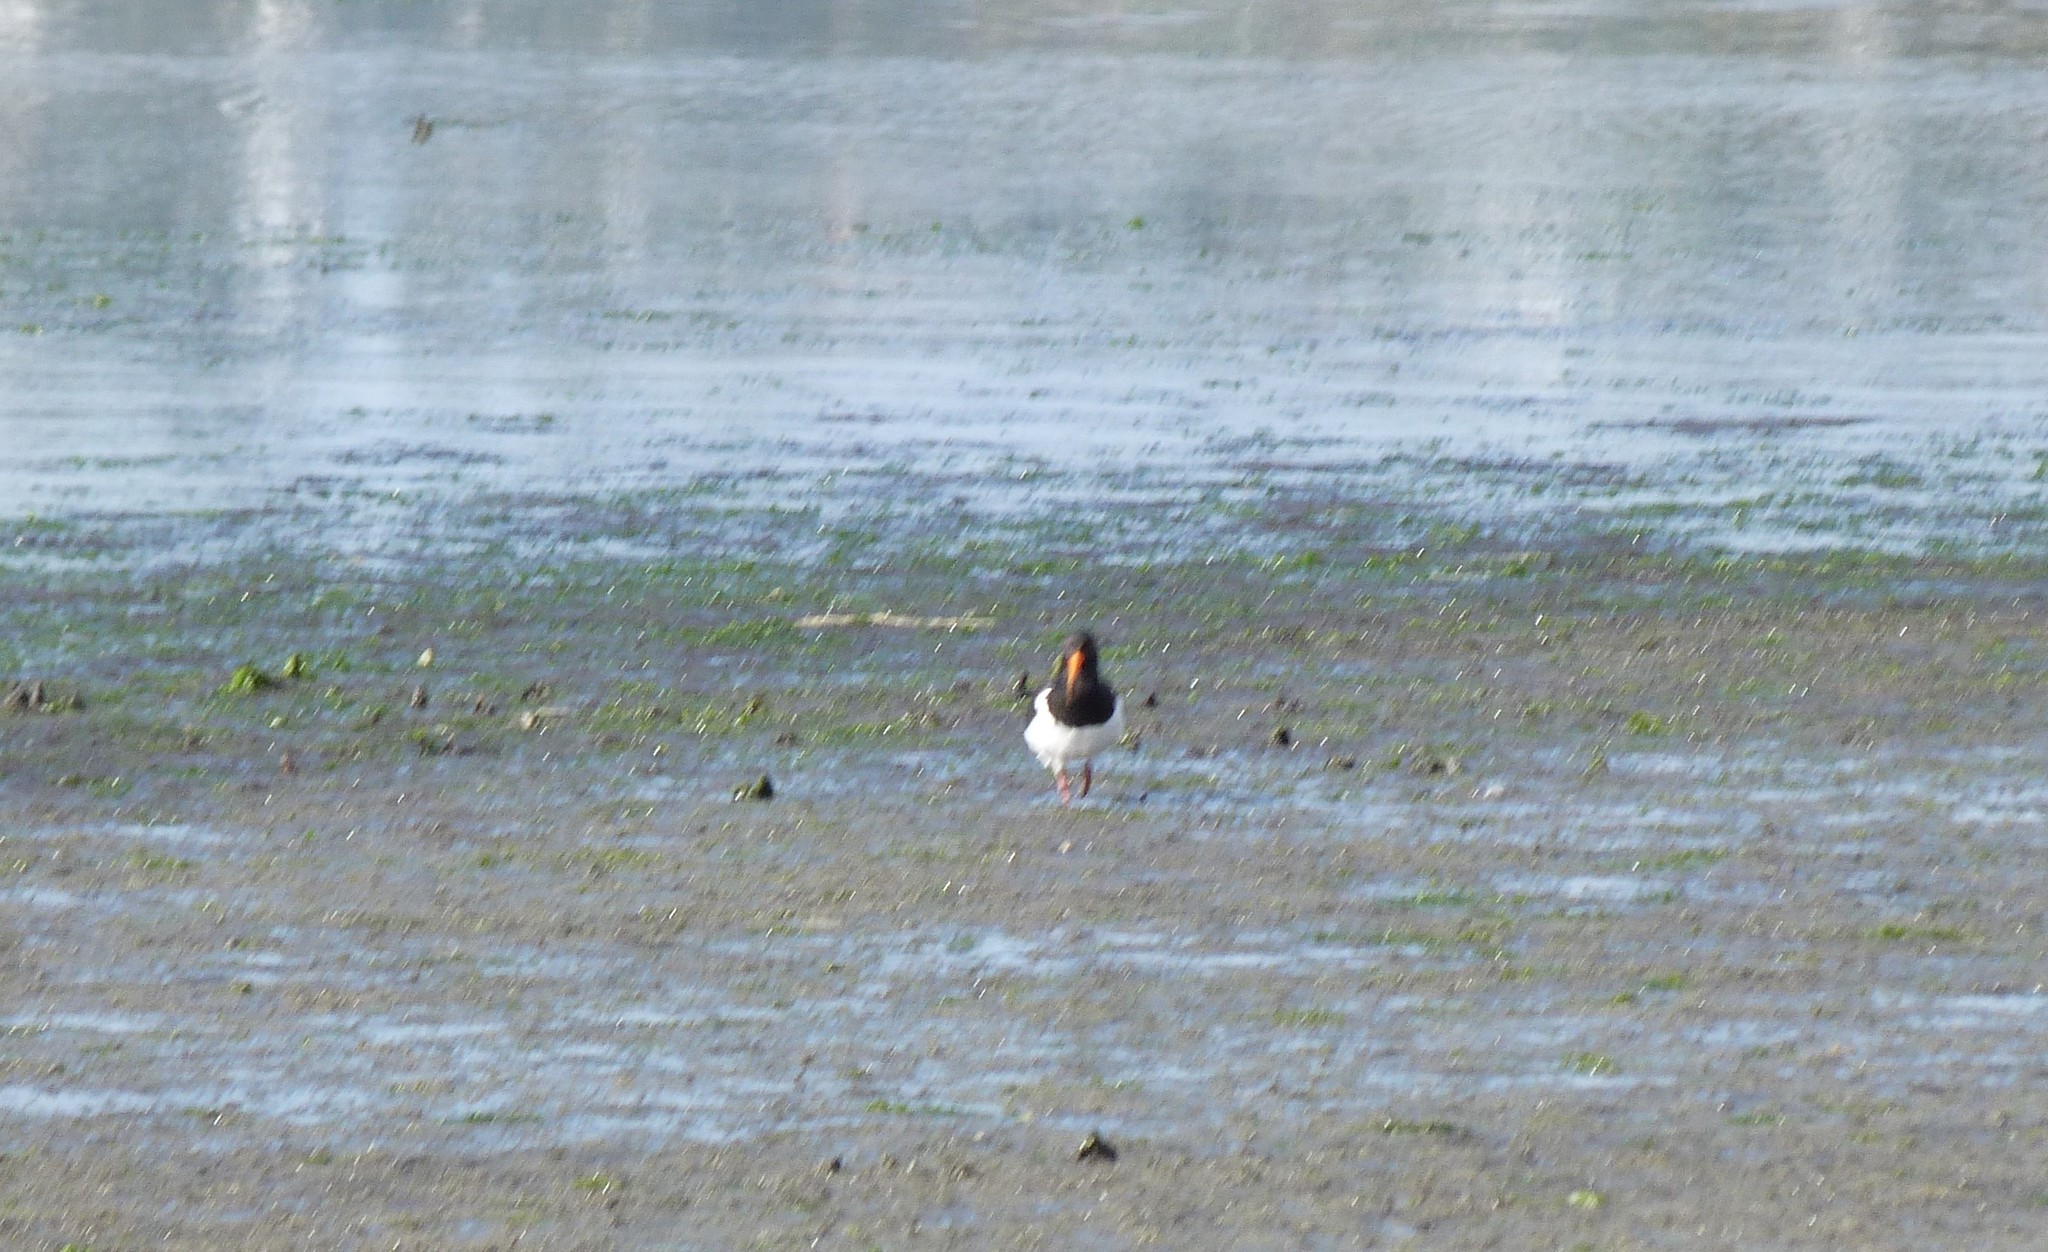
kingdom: Animalia
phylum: Chordata
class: Aves
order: Charadriiformes
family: Haematopodidae
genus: Haematopus
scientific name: Haematopus finschi
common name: South island oystercatcher
